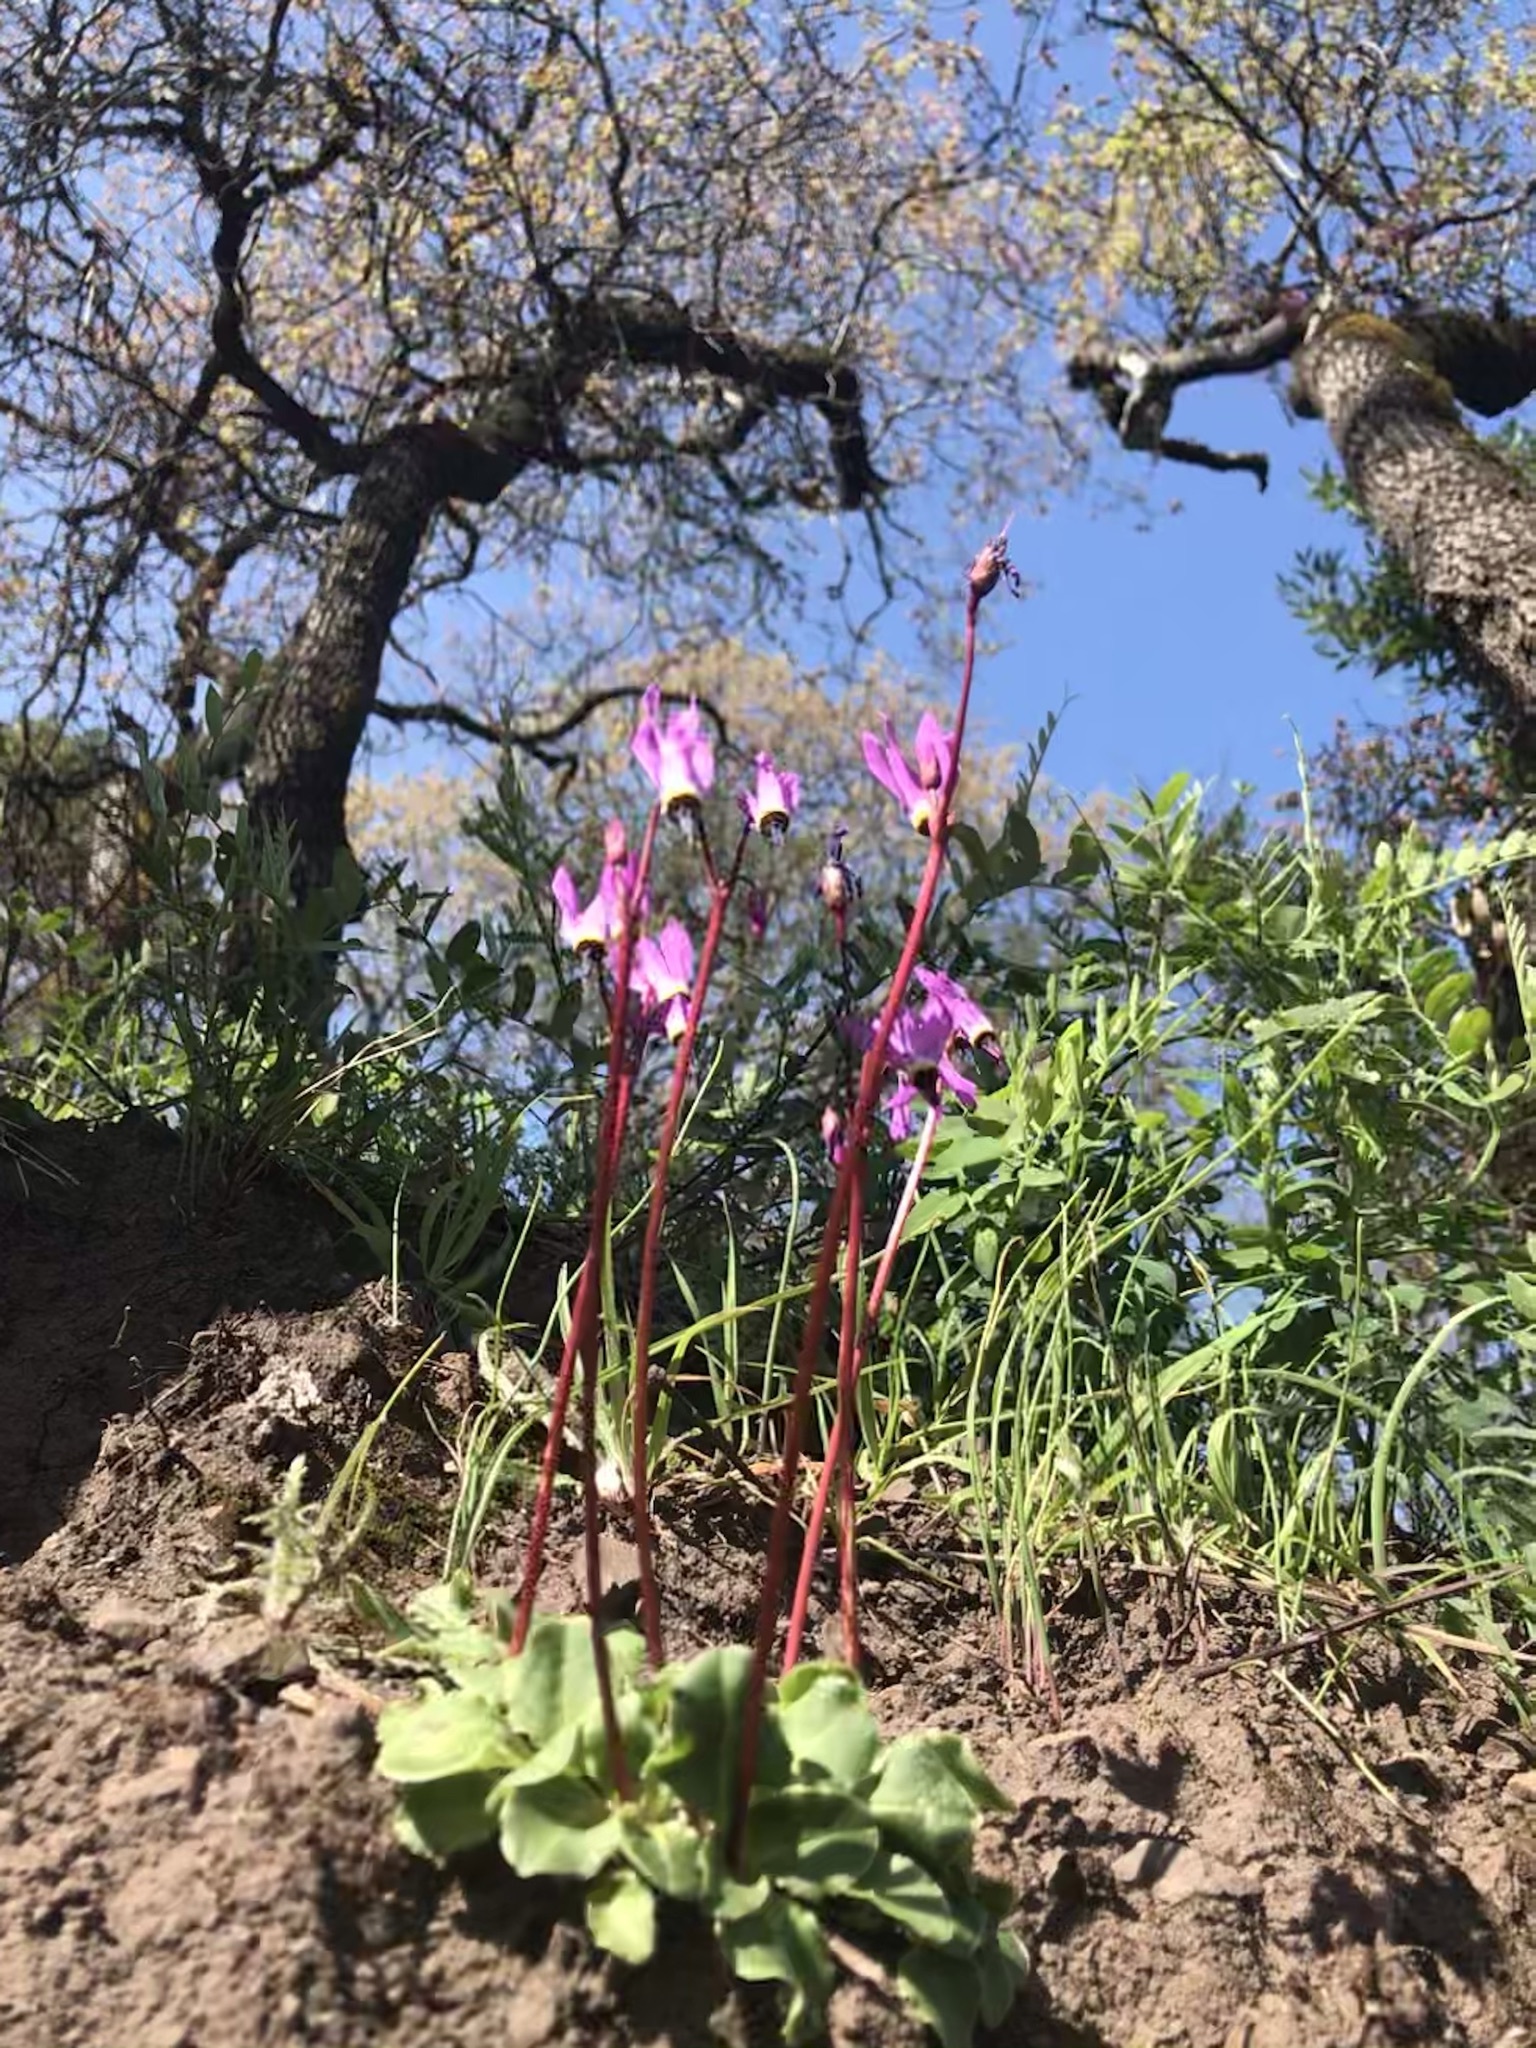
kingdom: Plantae
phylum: Tracheophyta
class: Magnoliopsida
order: Ericales
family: Primulaceae
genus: Dodecatheon
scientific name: Dodecatheon hendersonii
